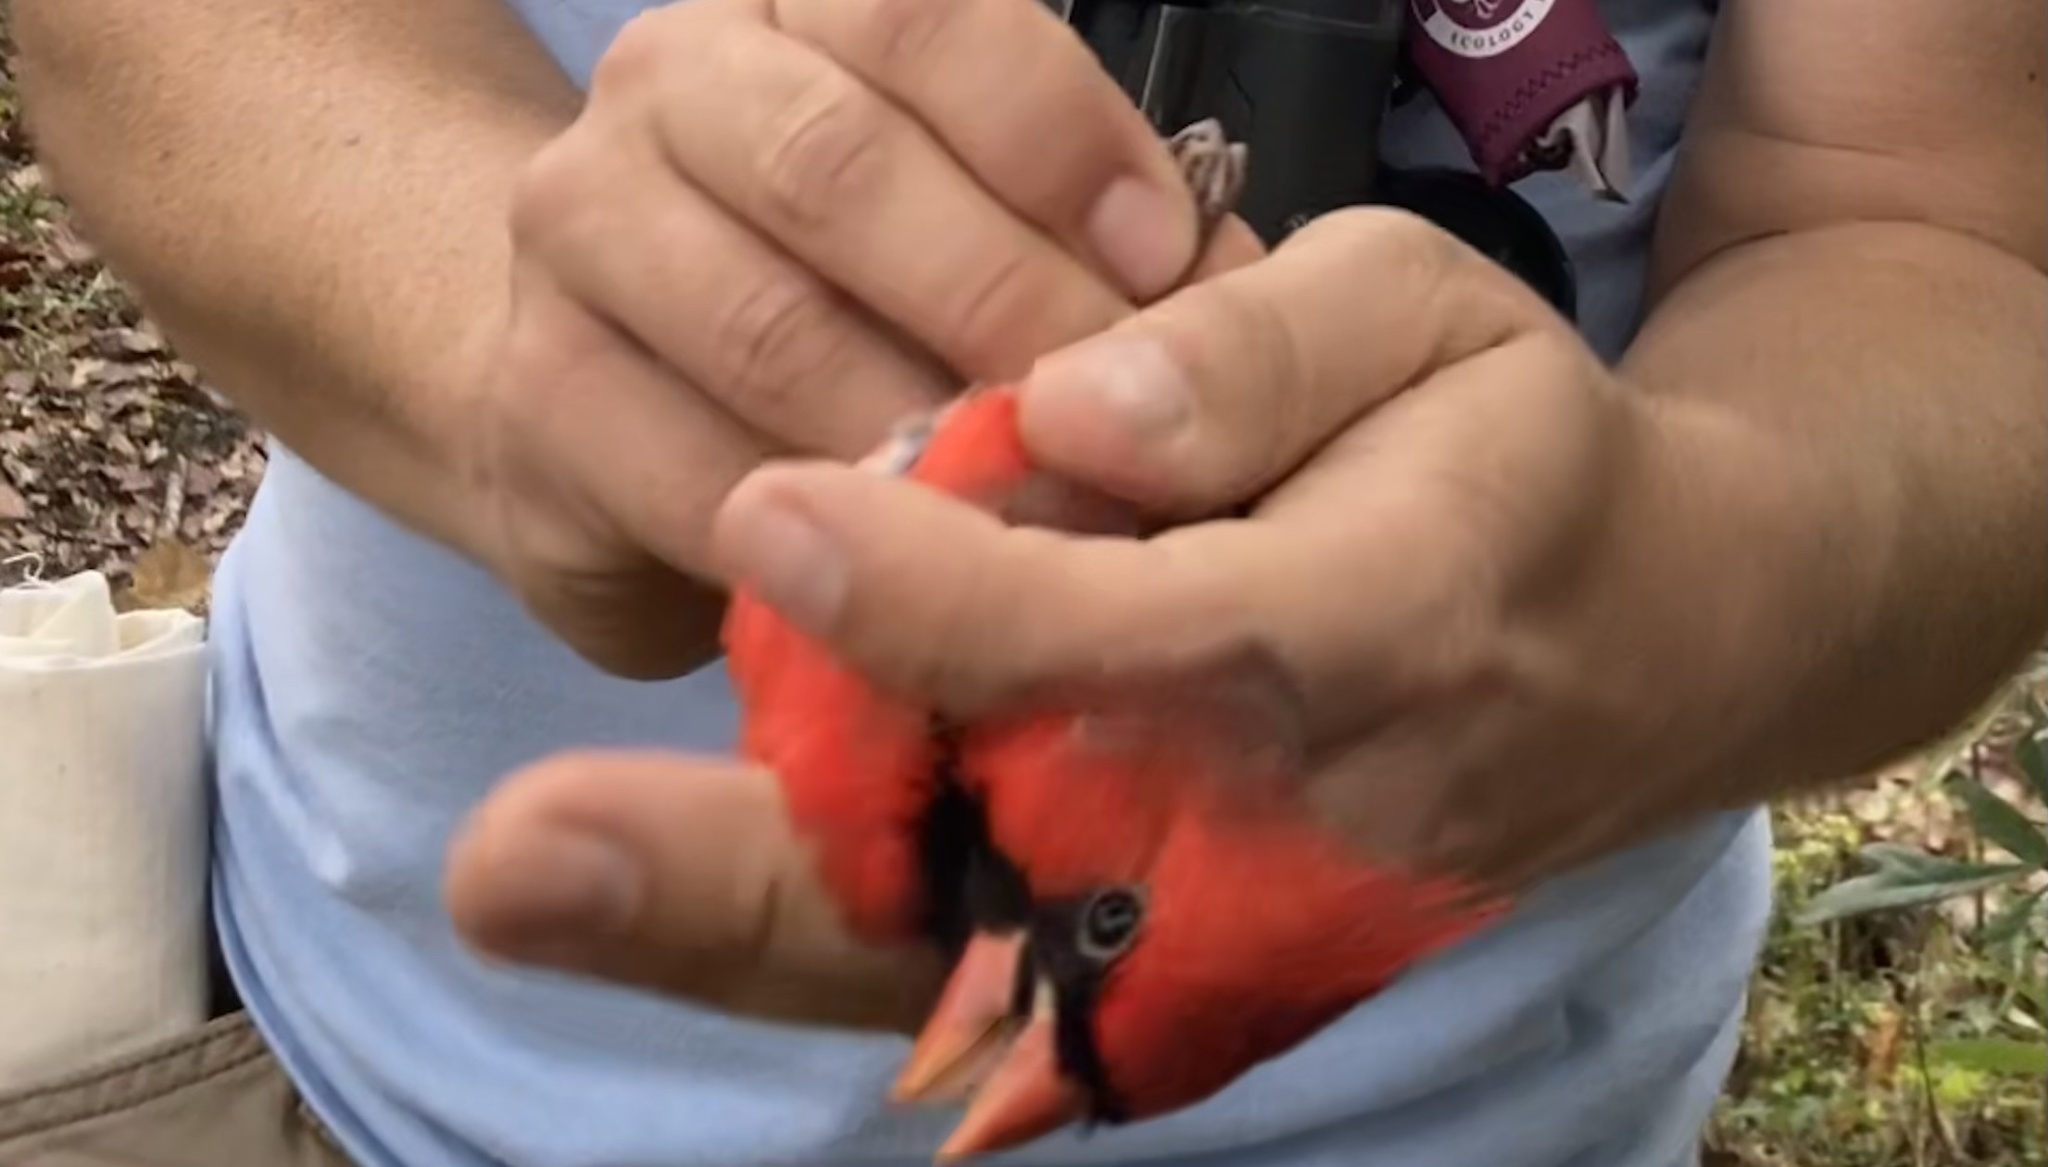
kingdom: Animalia
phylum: Chordata
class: Aves
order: Passeriformes
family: Cardinalidae
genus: Cardinalis
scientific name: Cardinalis cardinalis
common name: Northern cardinal
